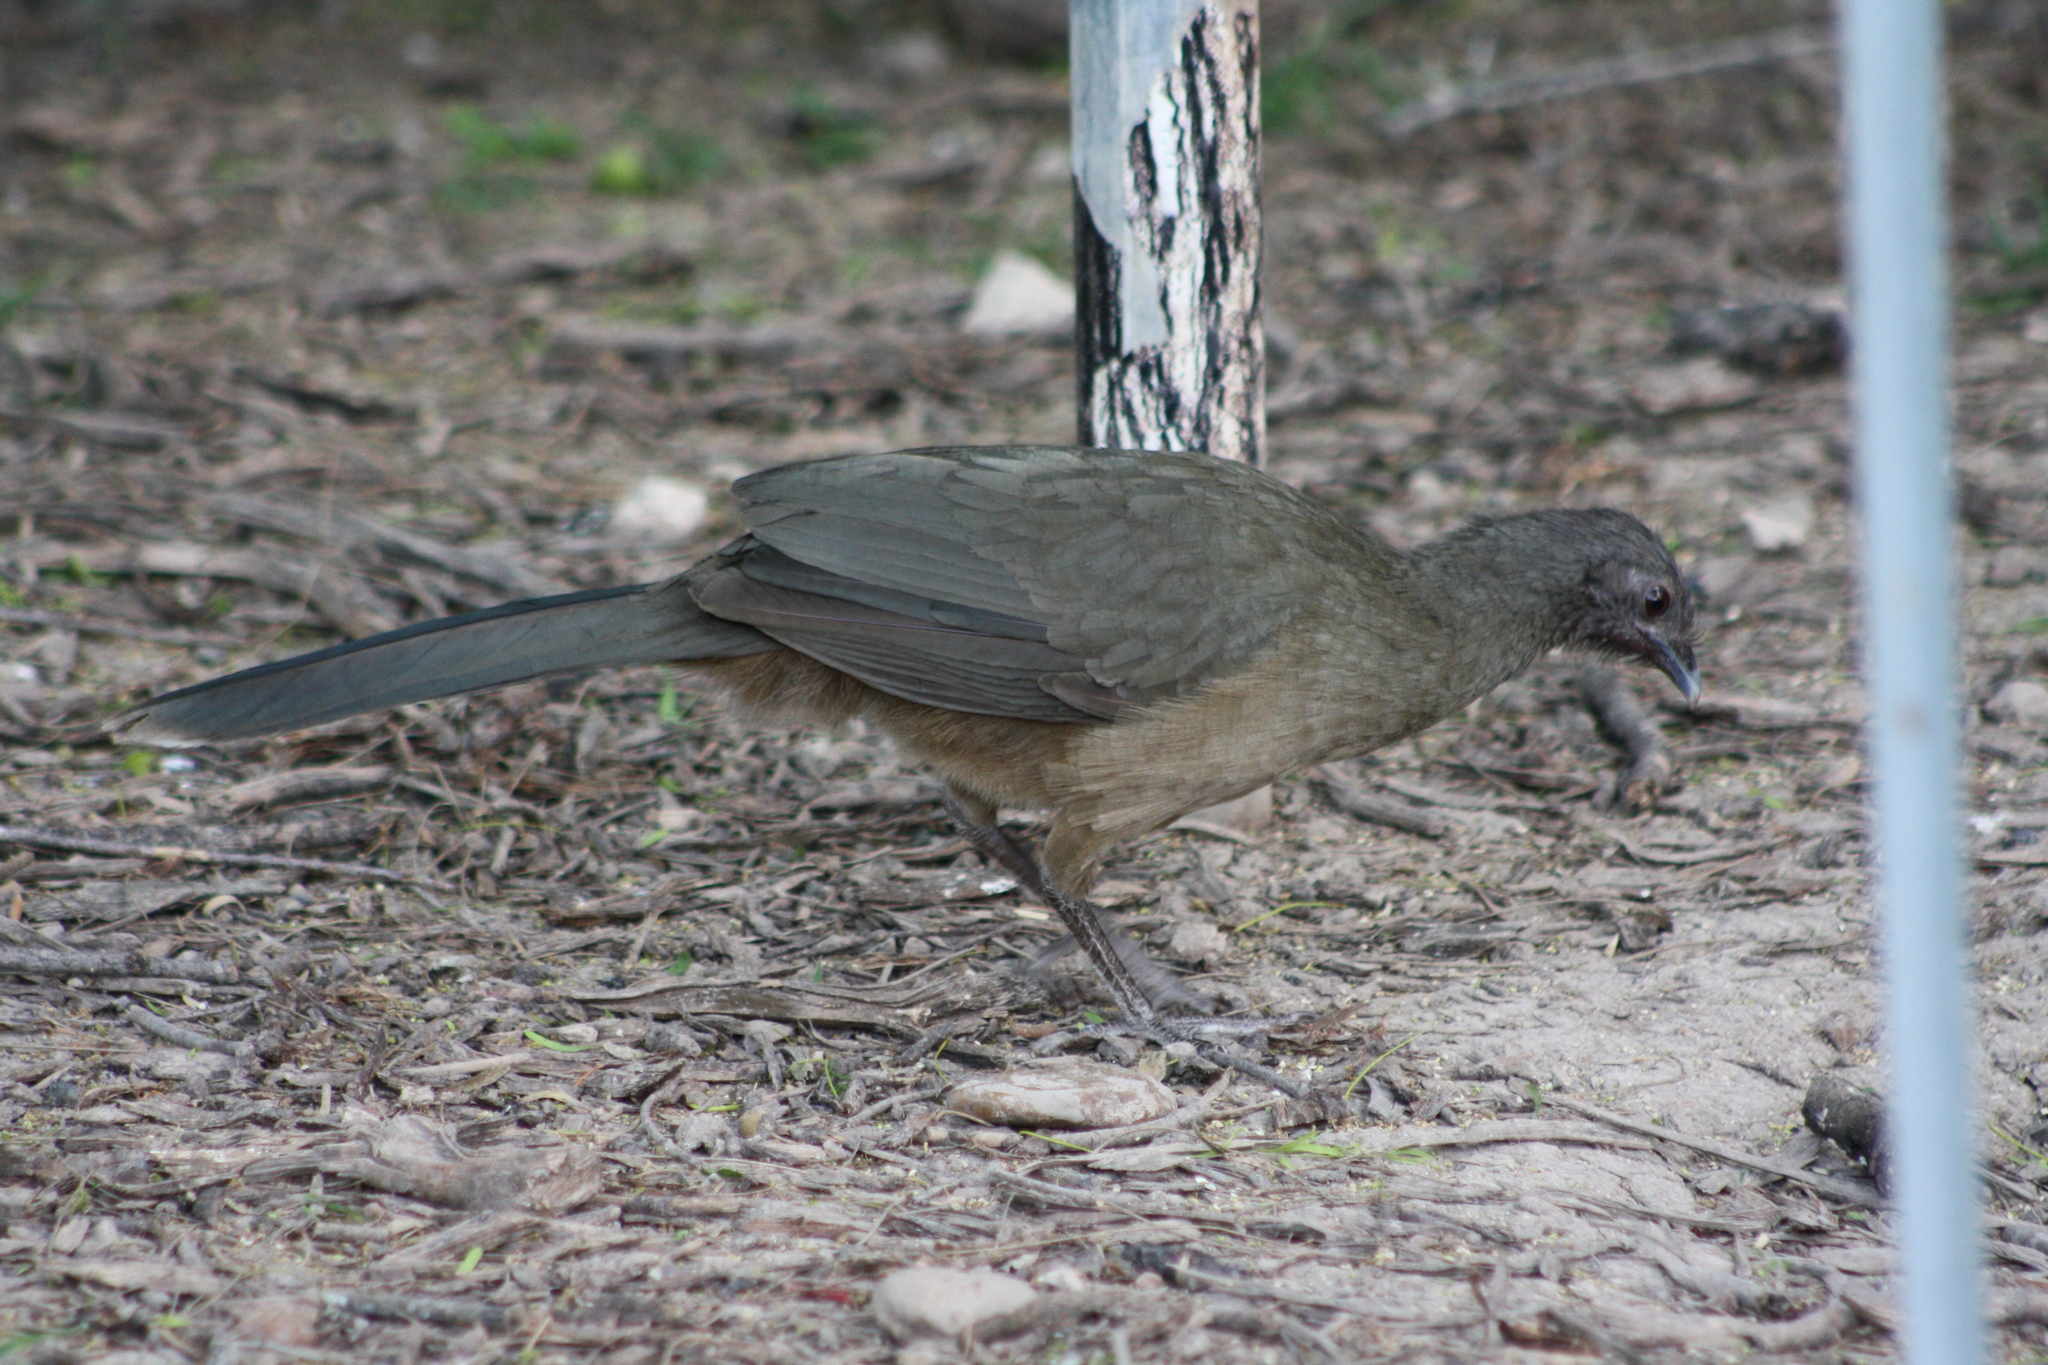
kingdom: Animalia
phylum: Chordata
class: Aves
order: Galliformes
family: Cracidae
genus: Ortalis
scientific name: Ortalis vetula
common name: Plain chachalaca
